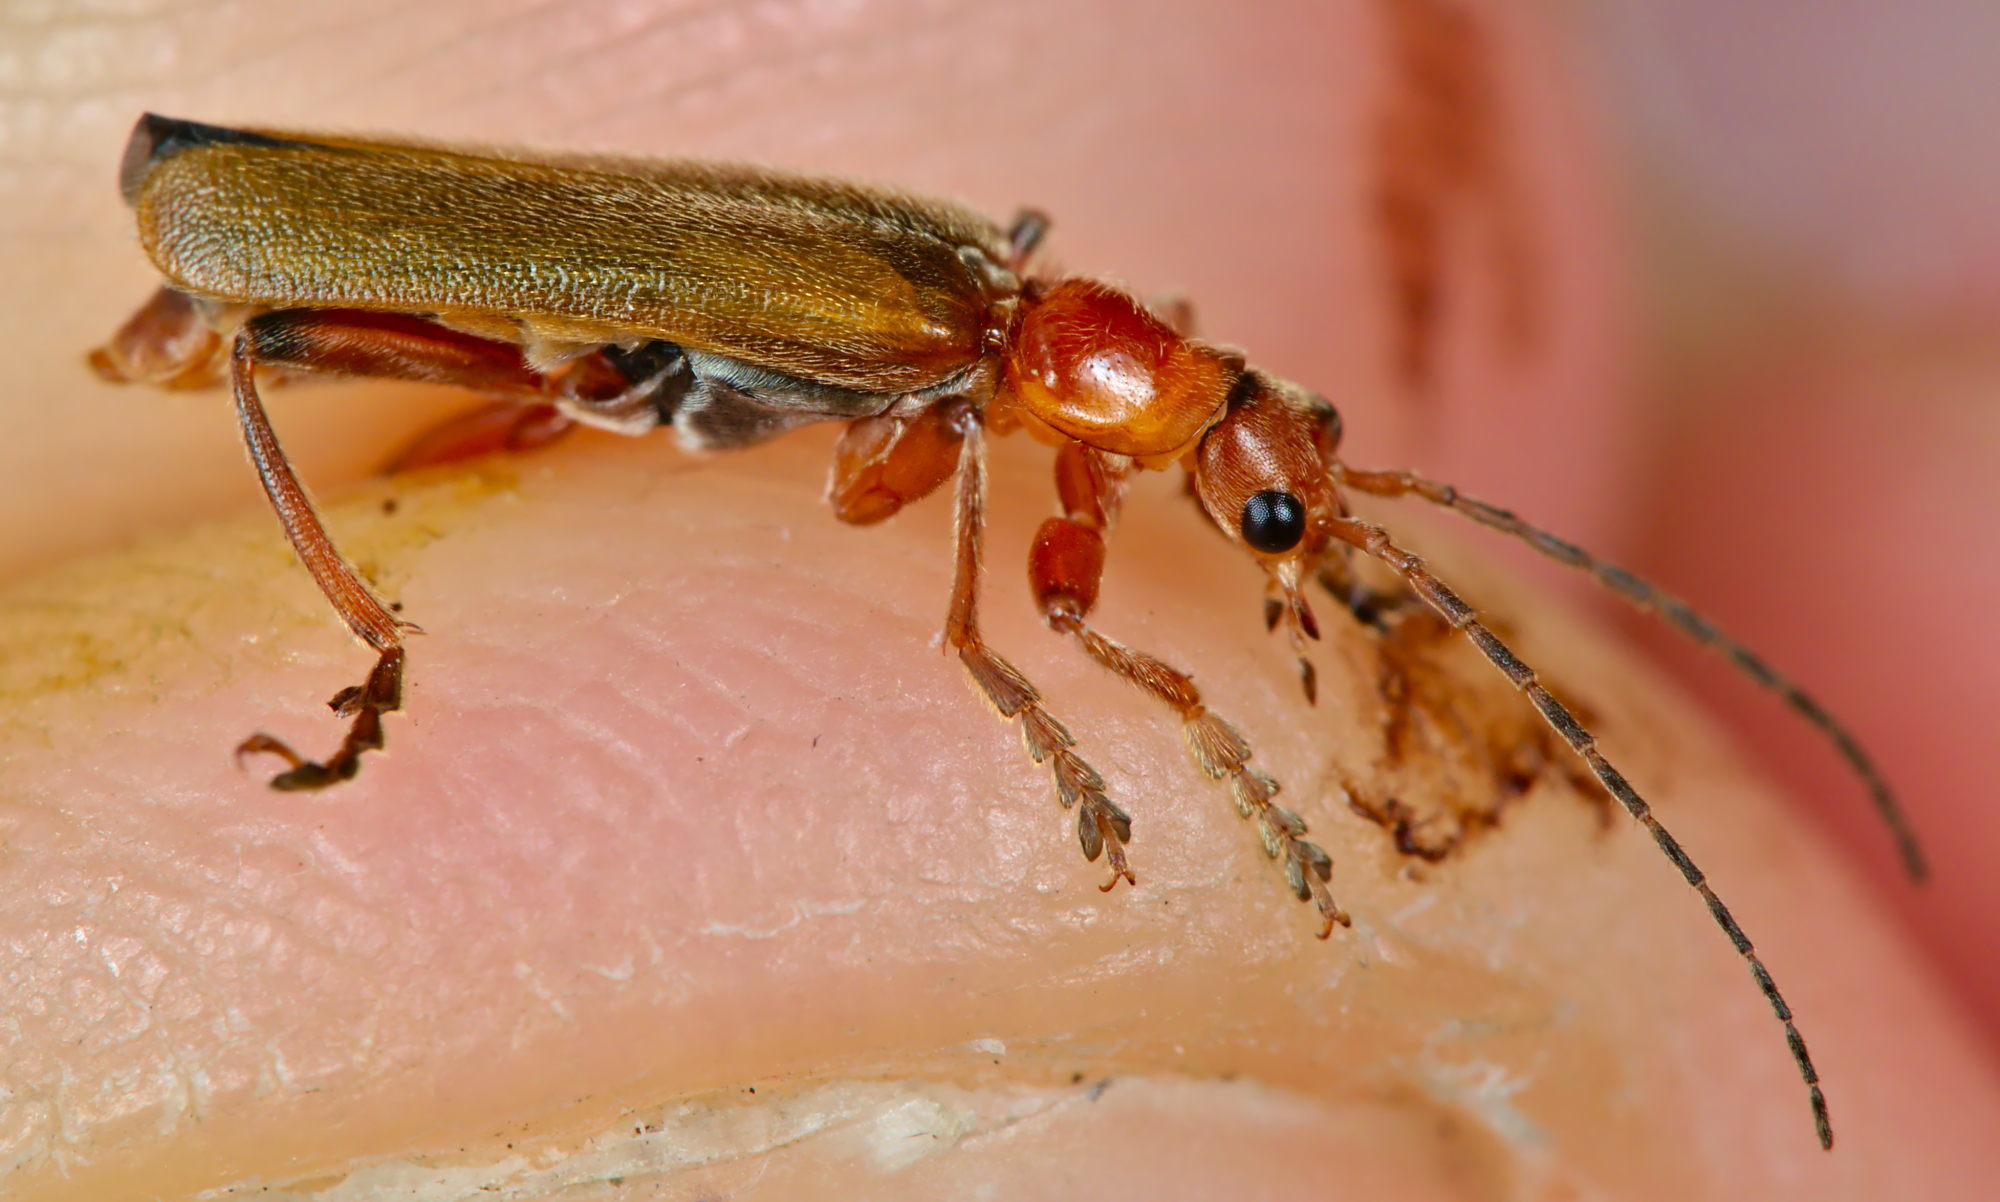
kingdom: Animalia
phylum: Arthropoda
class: Insecta
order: Coleoptera
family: Cantharidae
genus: Cantharis
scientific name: Cantharis pallida
